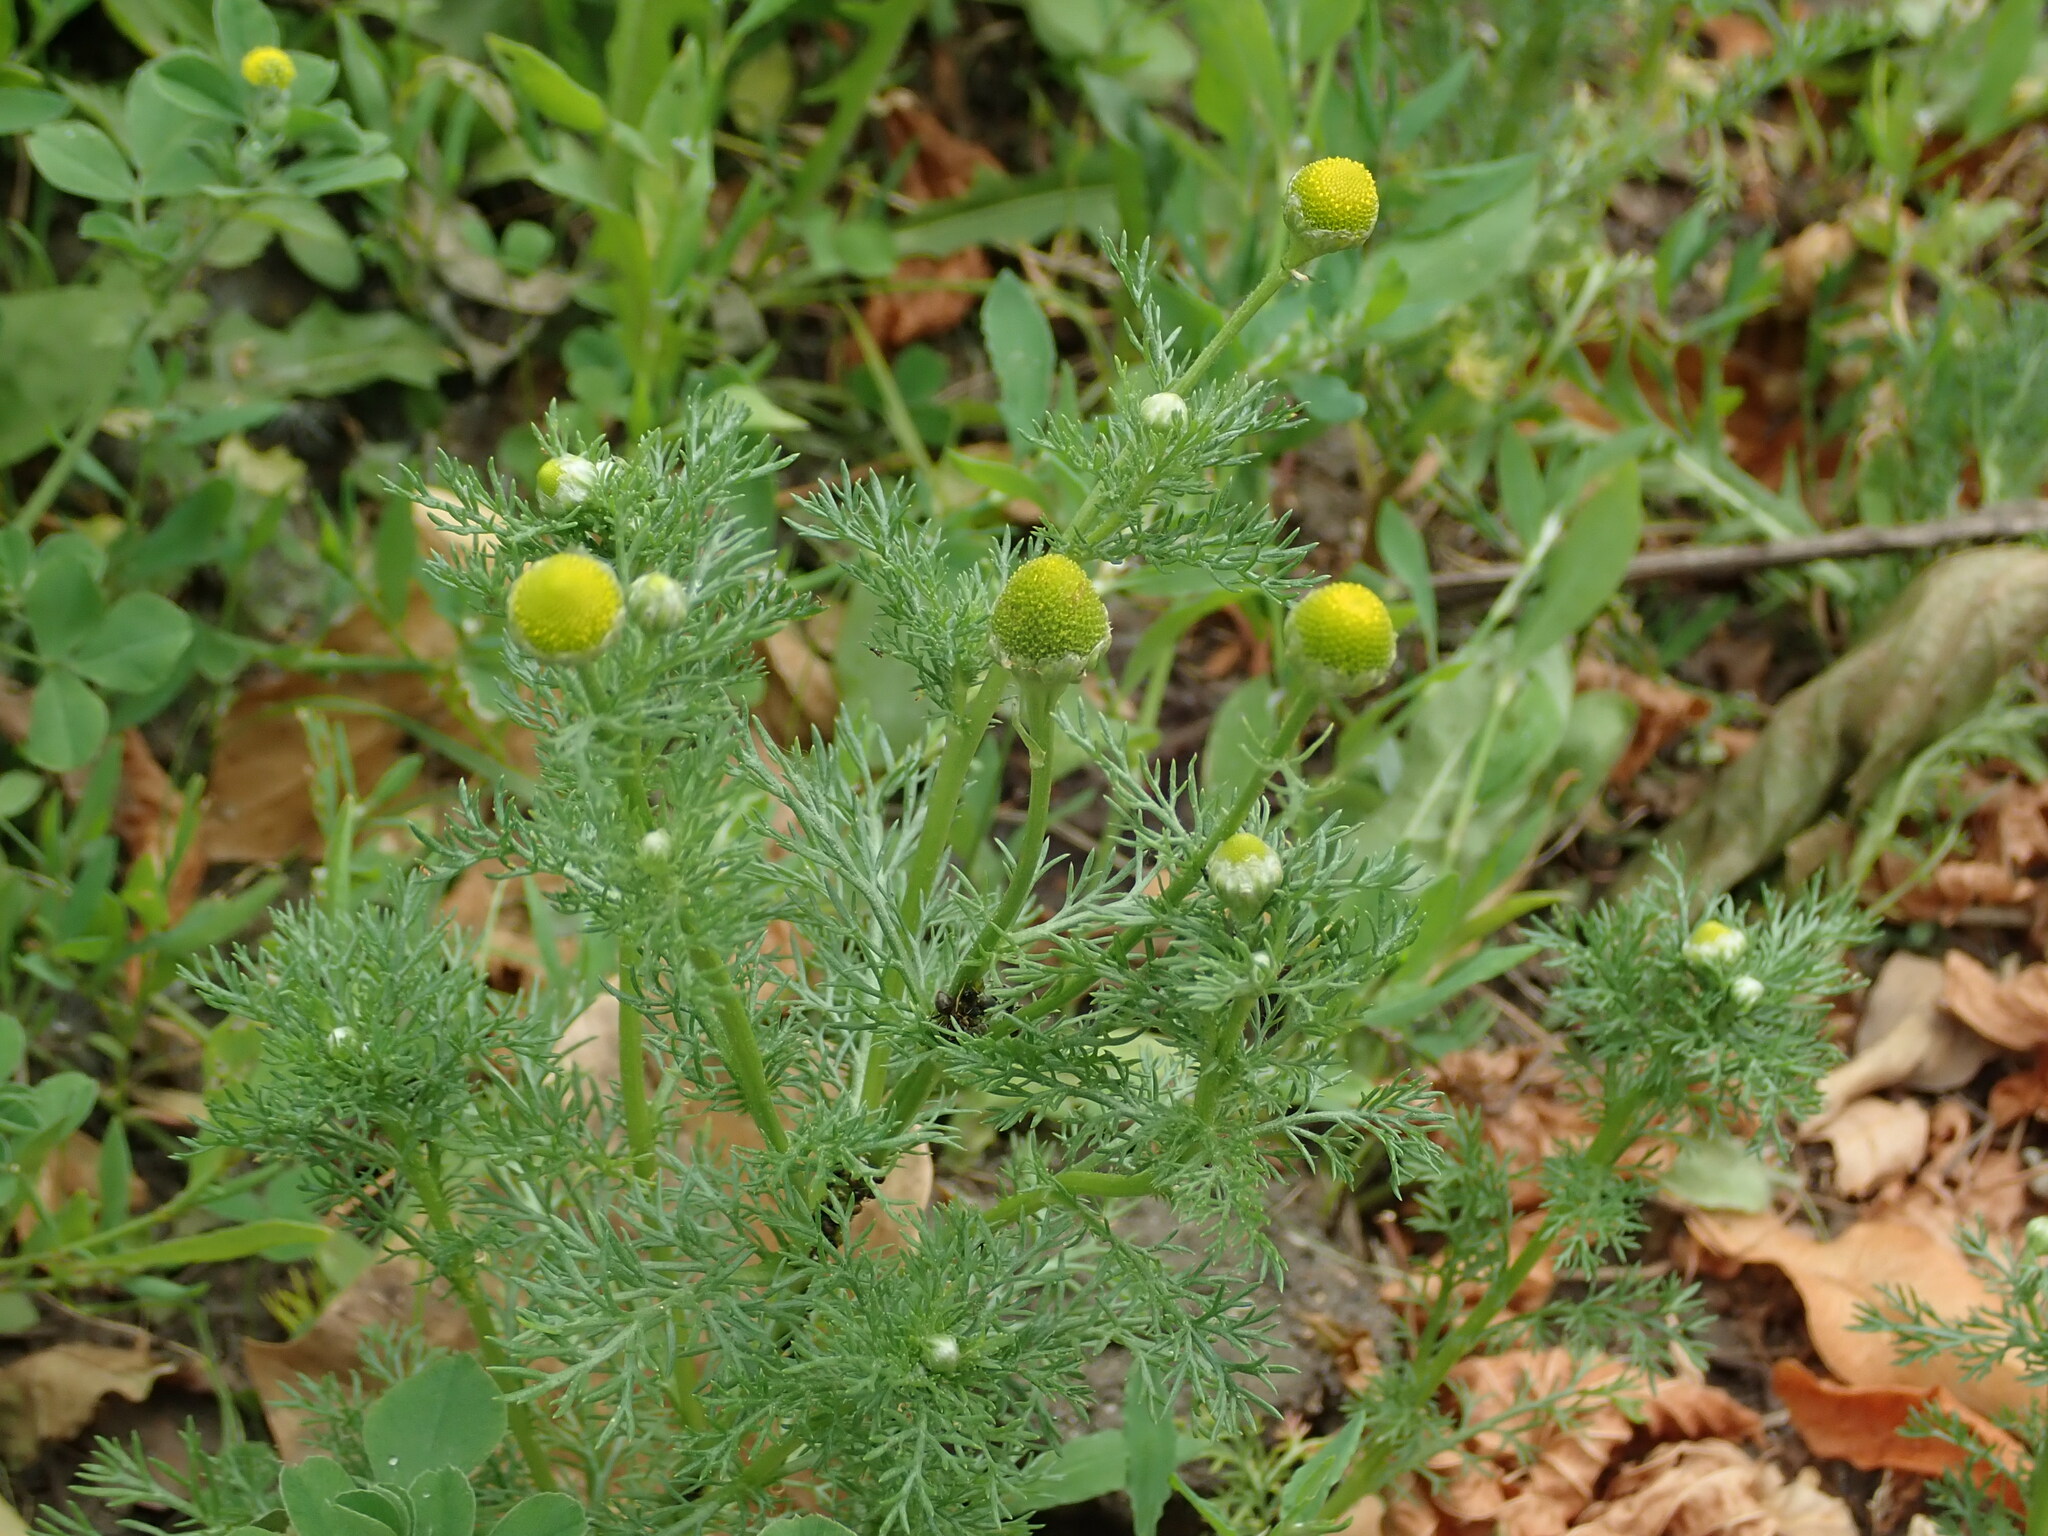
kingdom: Plantae
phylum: Tracheophyta
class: Magnoliopsida
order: Asterales
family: Asteraceae
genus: Matricaria
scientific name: Matricaria discoidea
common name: Disc mayweed
